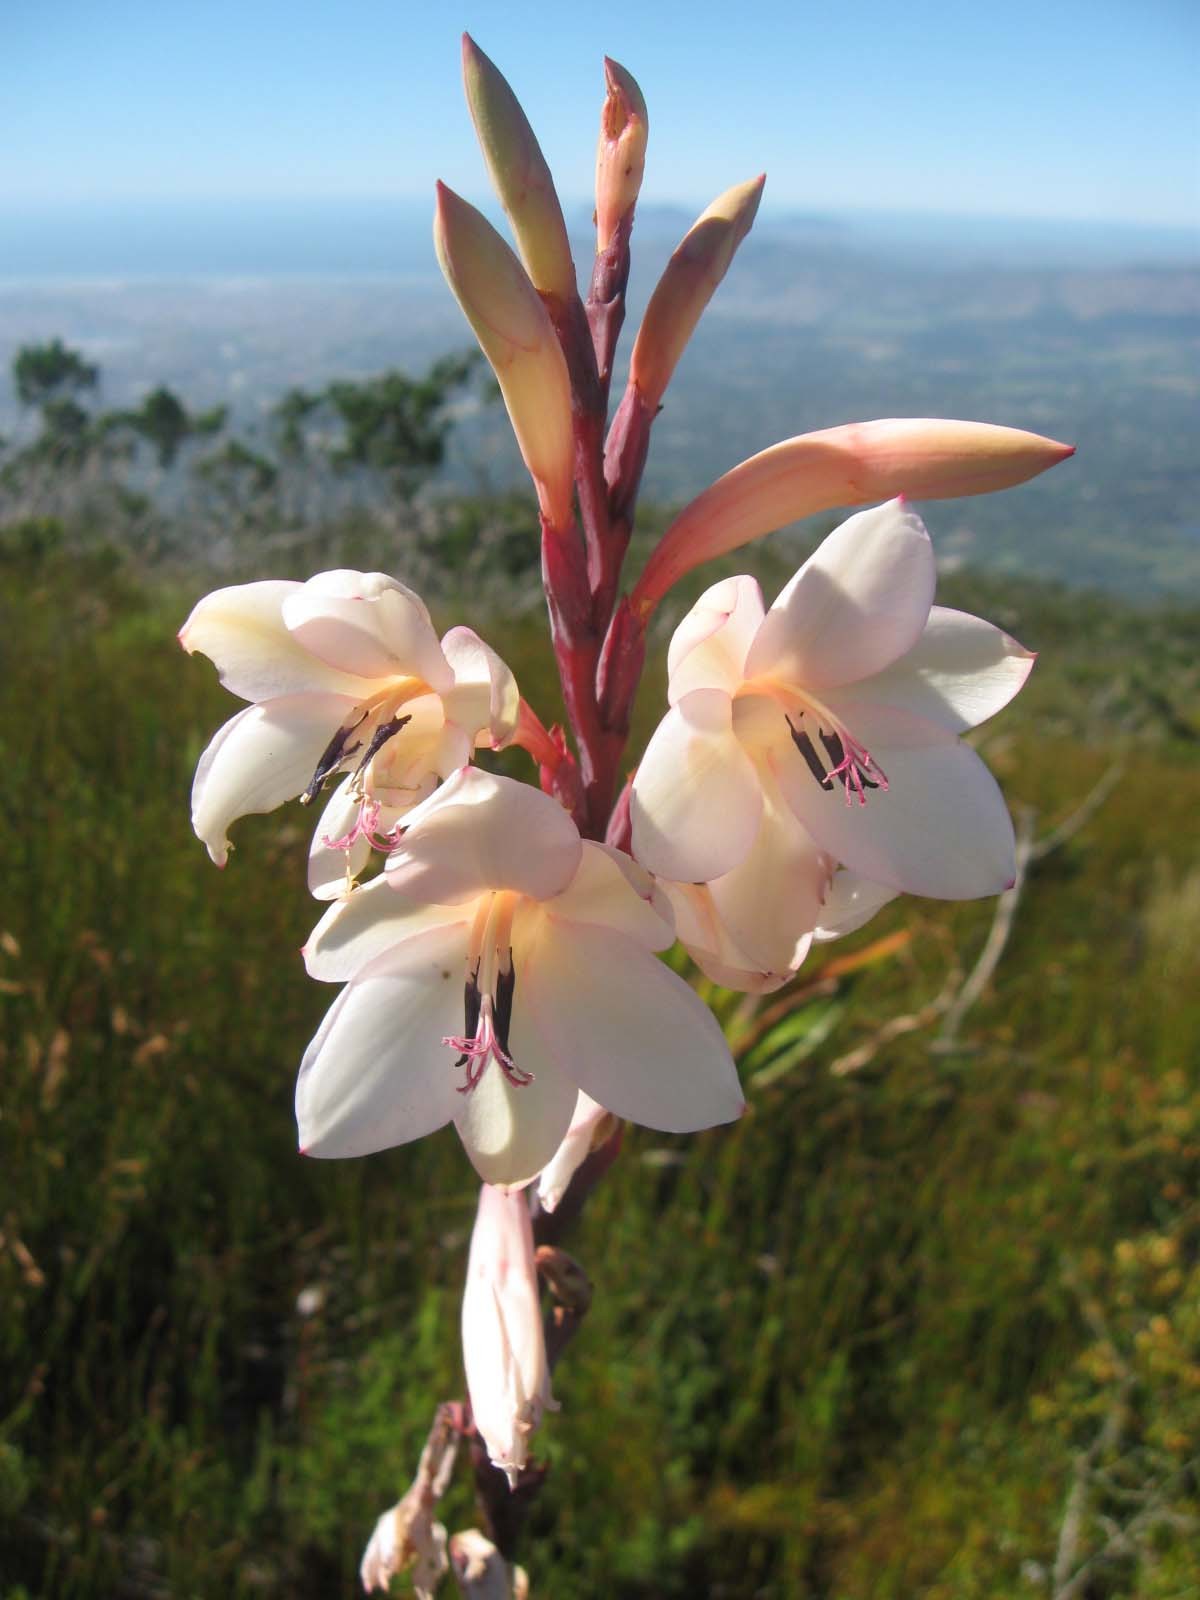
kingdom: Plantae
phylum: Tracheophyta
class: Liliopsida
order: Asparagales
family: Iridaceae
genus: Watsonia
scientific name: Watsonia tabularis
